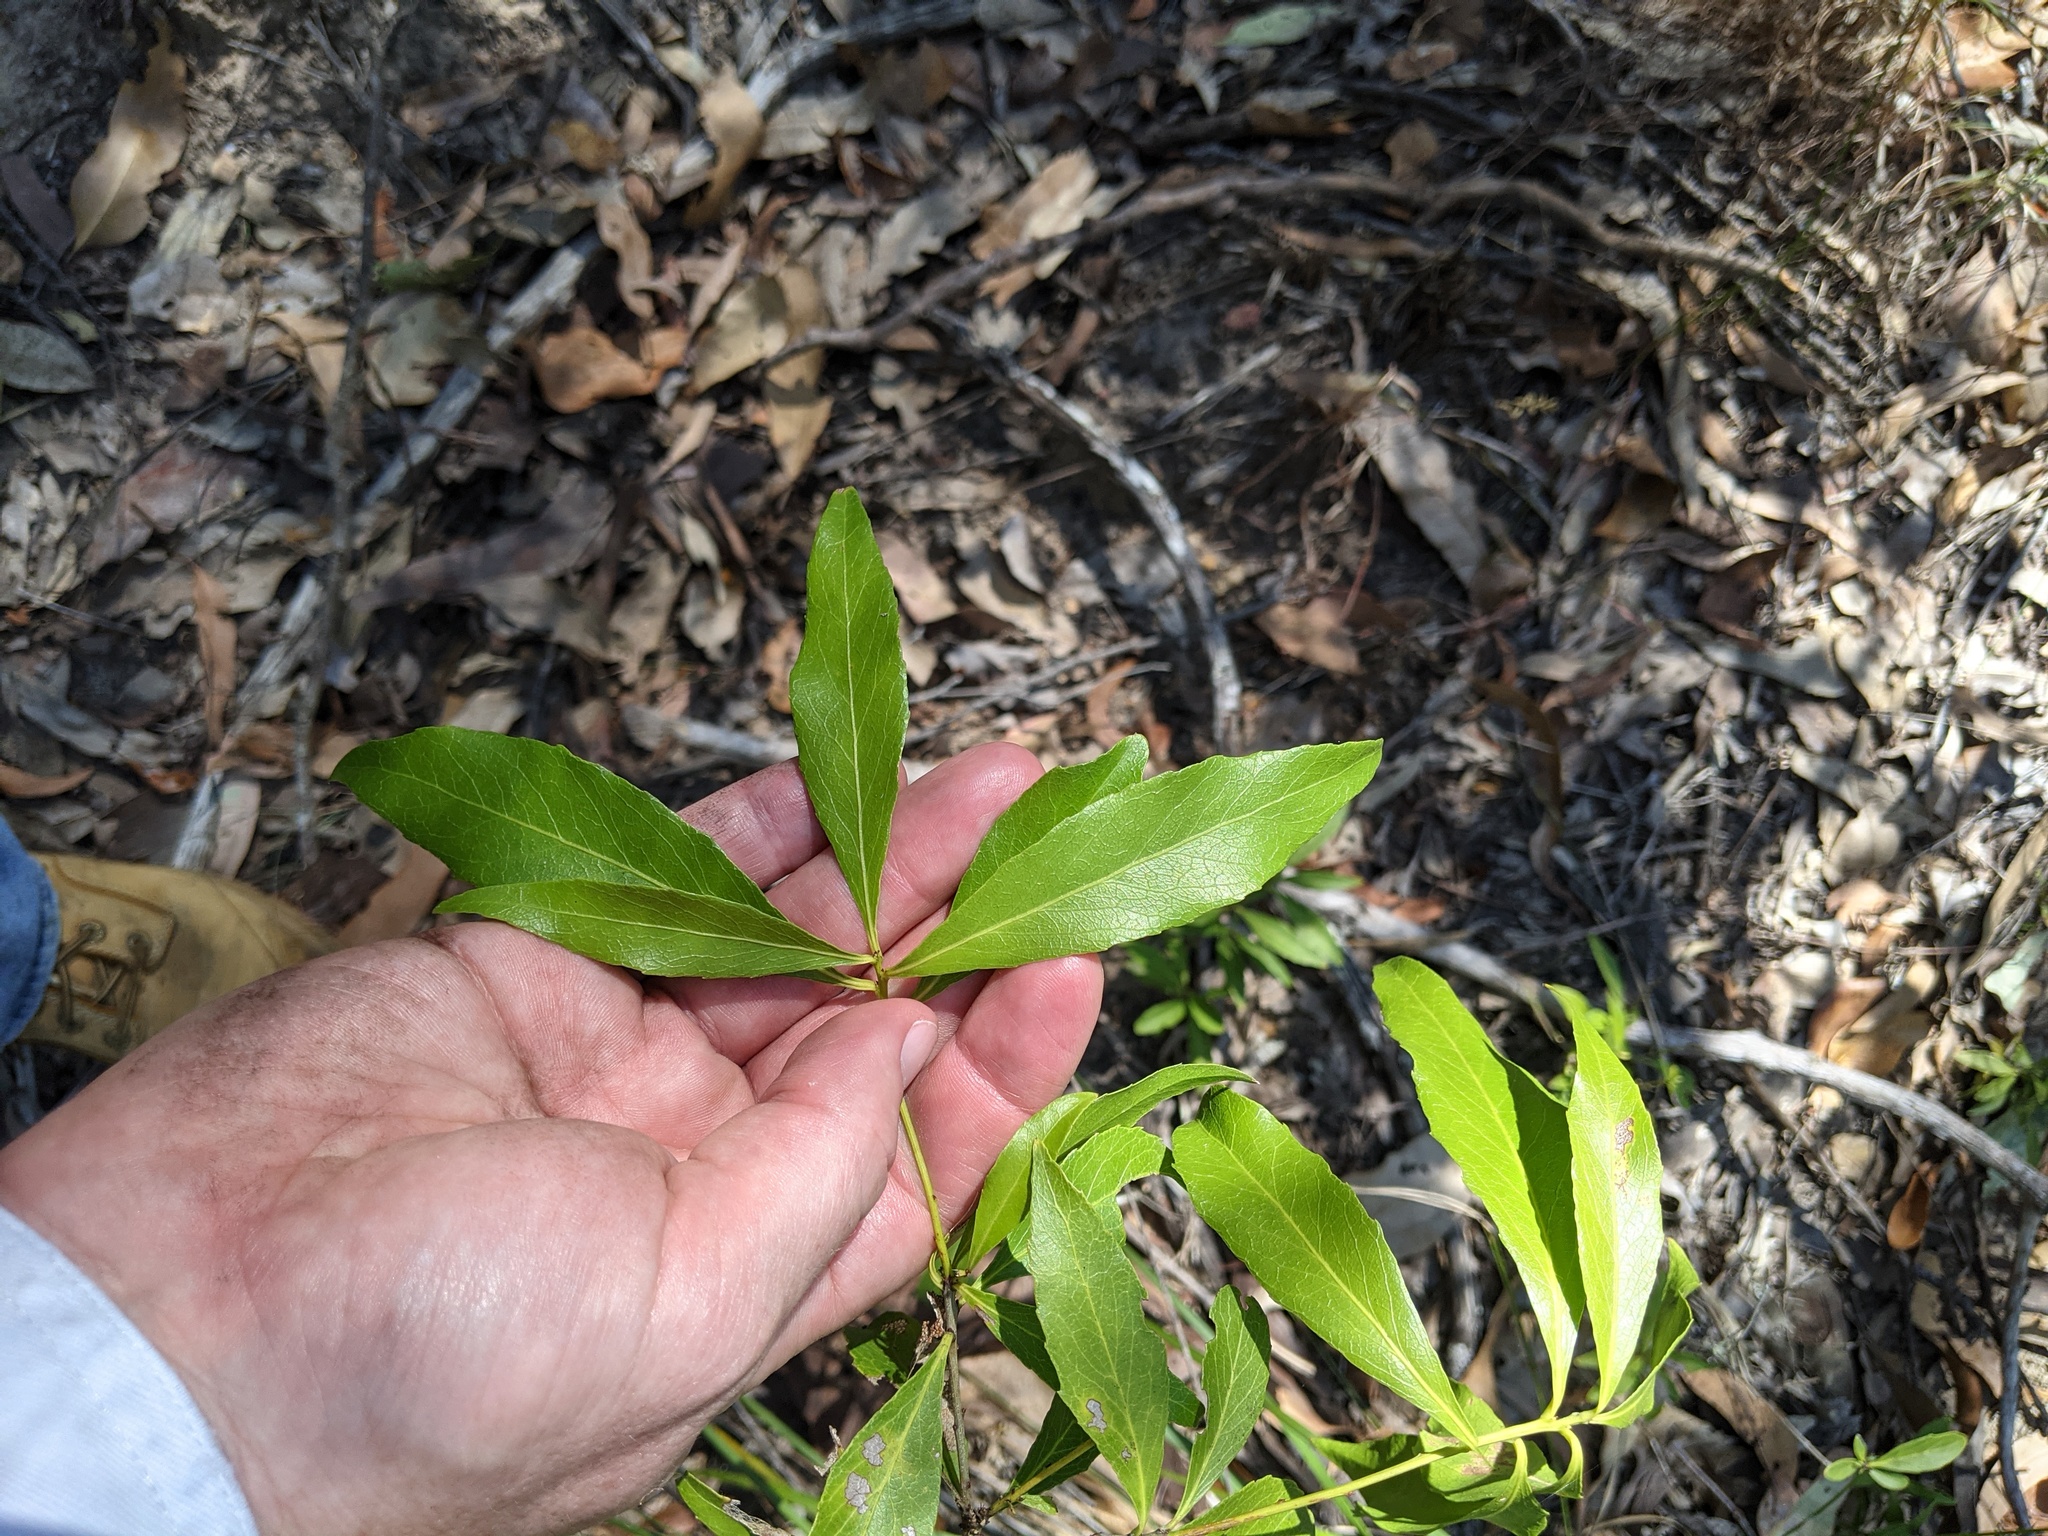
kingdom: Plantae
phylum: Tracheophyta
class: Magnoliopsida
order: Celastrales
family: Celastraceae
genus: Denhamia
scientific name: Denhamia celastroides
